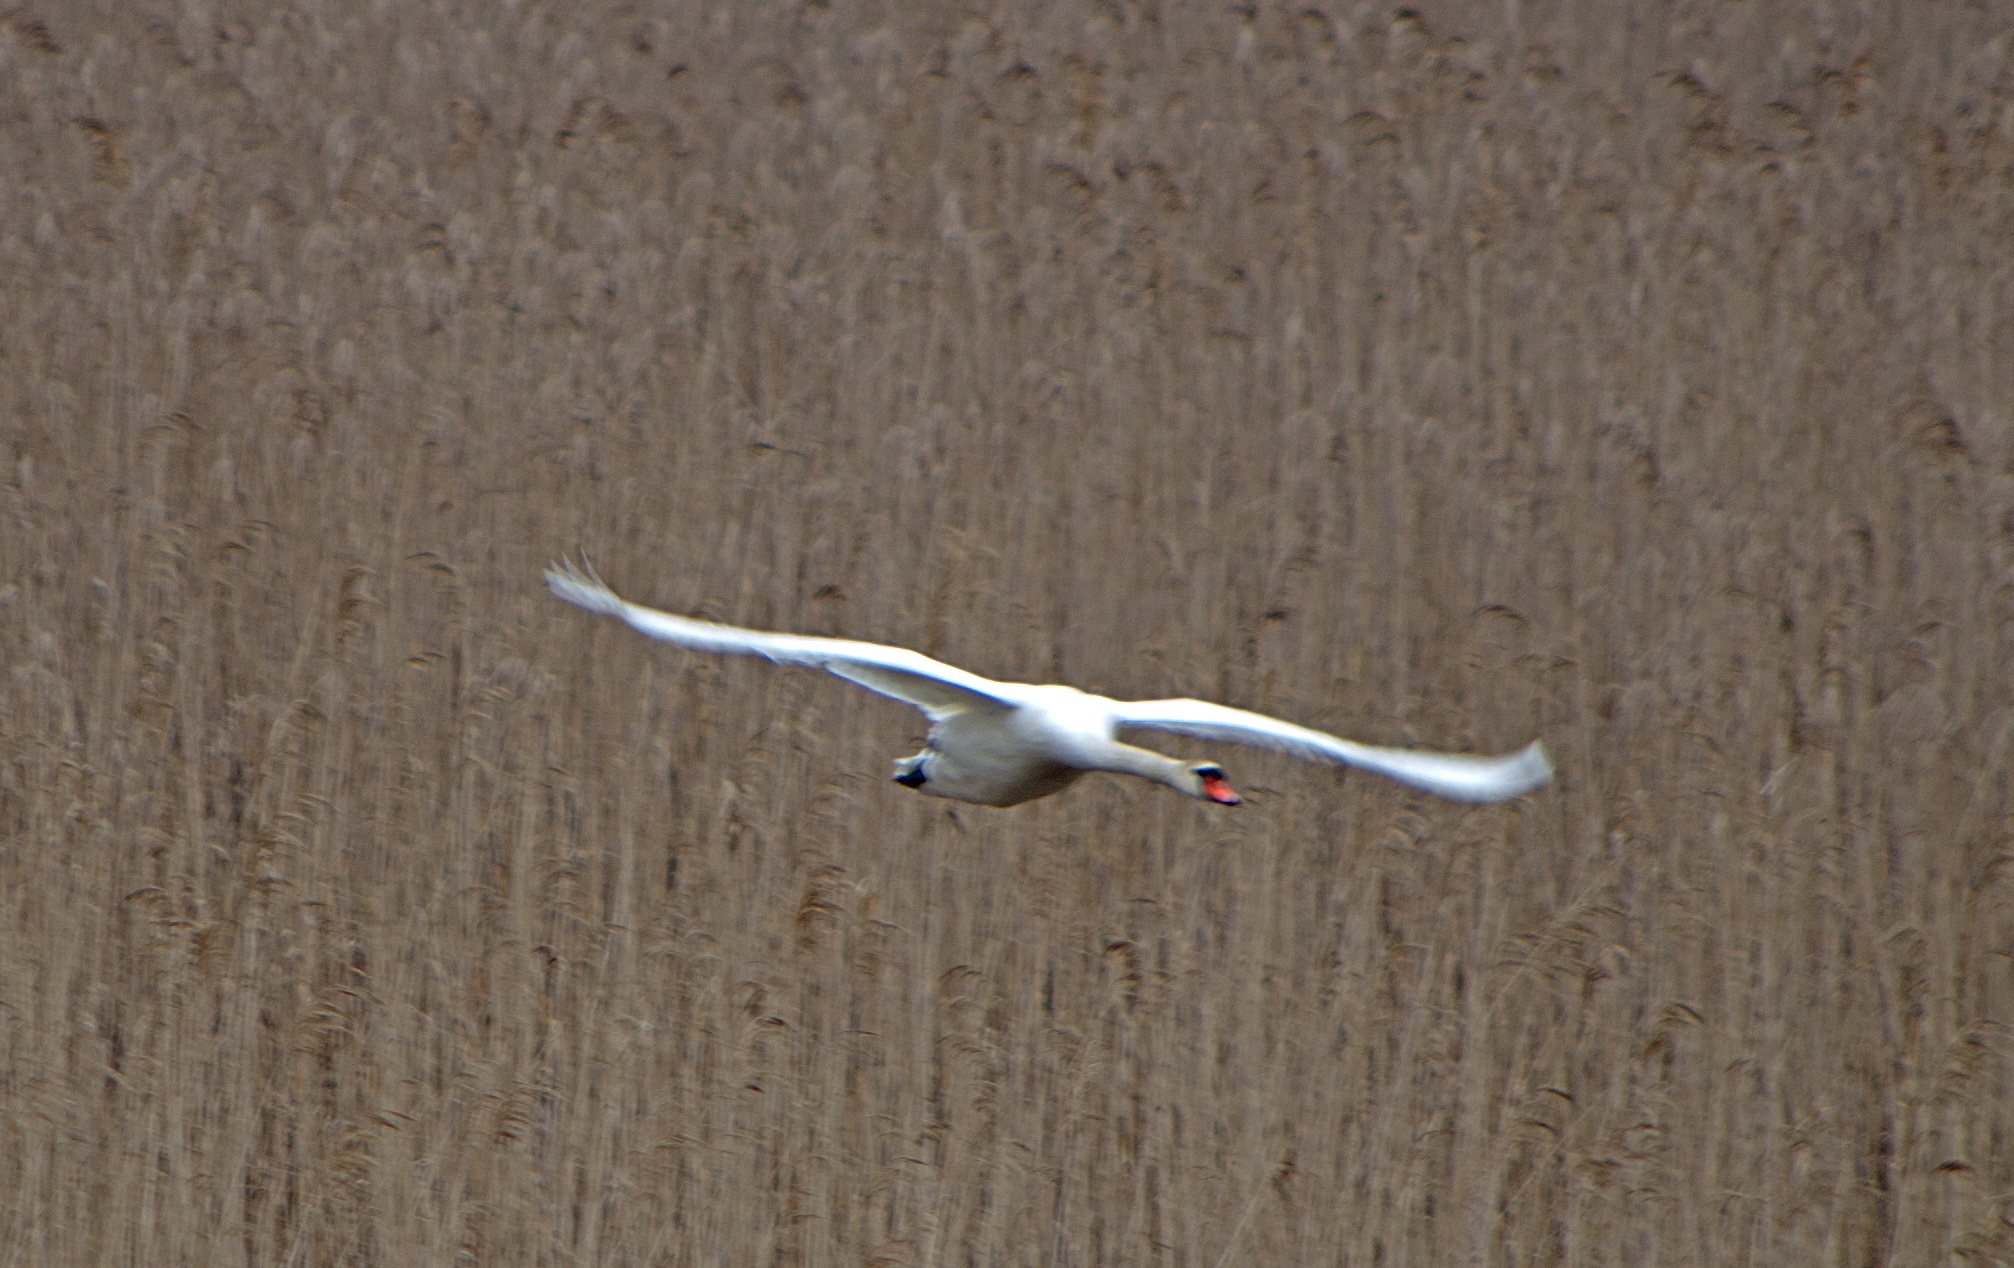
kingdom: Animalia
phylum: Chordata
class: Aves
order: Anseriformes
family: Anatidae
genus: Cygnus
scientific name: Cygnus olor
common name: Mute swan
